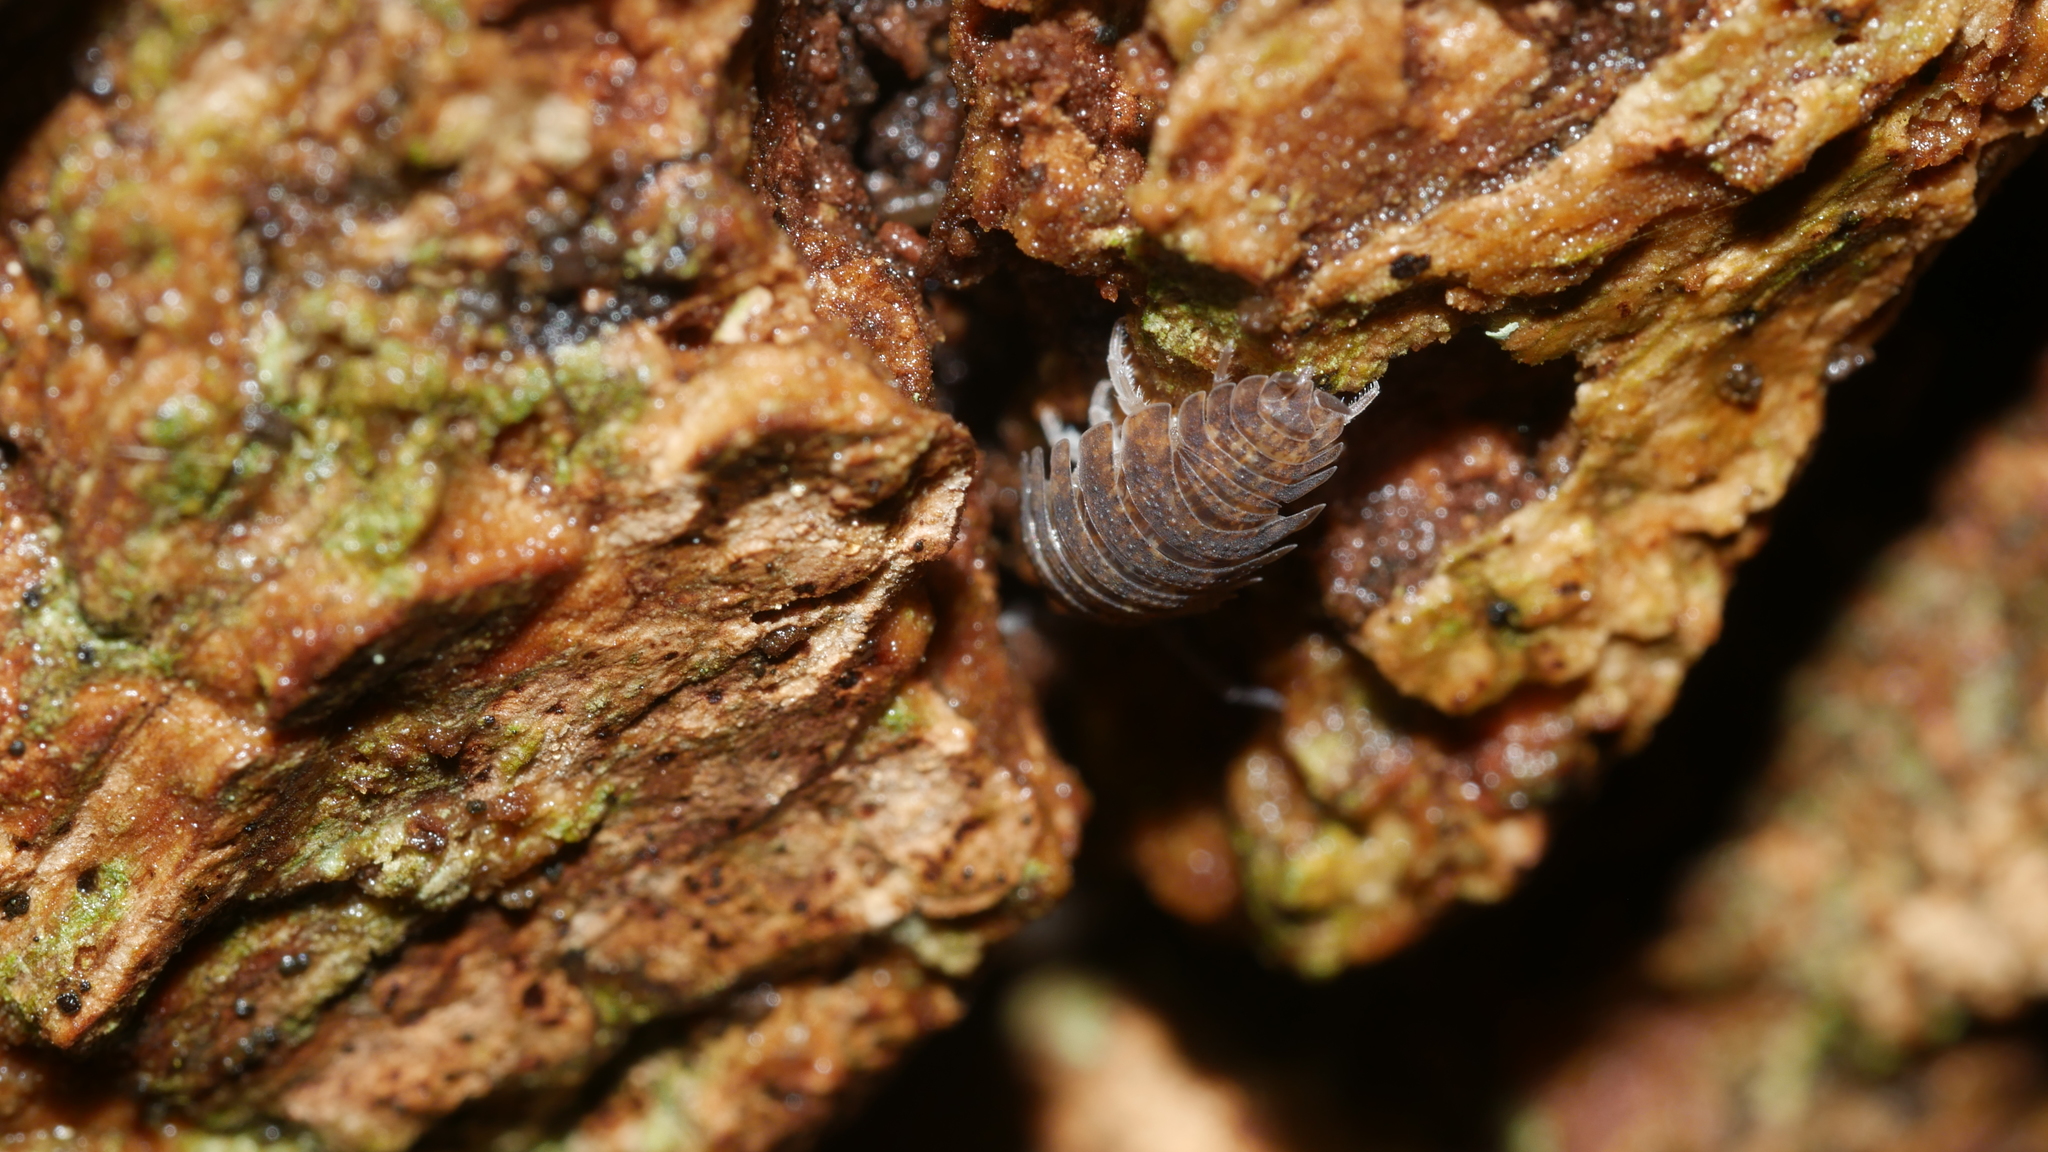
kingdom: Animalia
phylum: Arthropoda
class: Malacostraca
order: Isopoda
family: Porcellionidae
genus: Porcellio
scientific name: Porcellio scaber
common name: Common rough woodlouse
